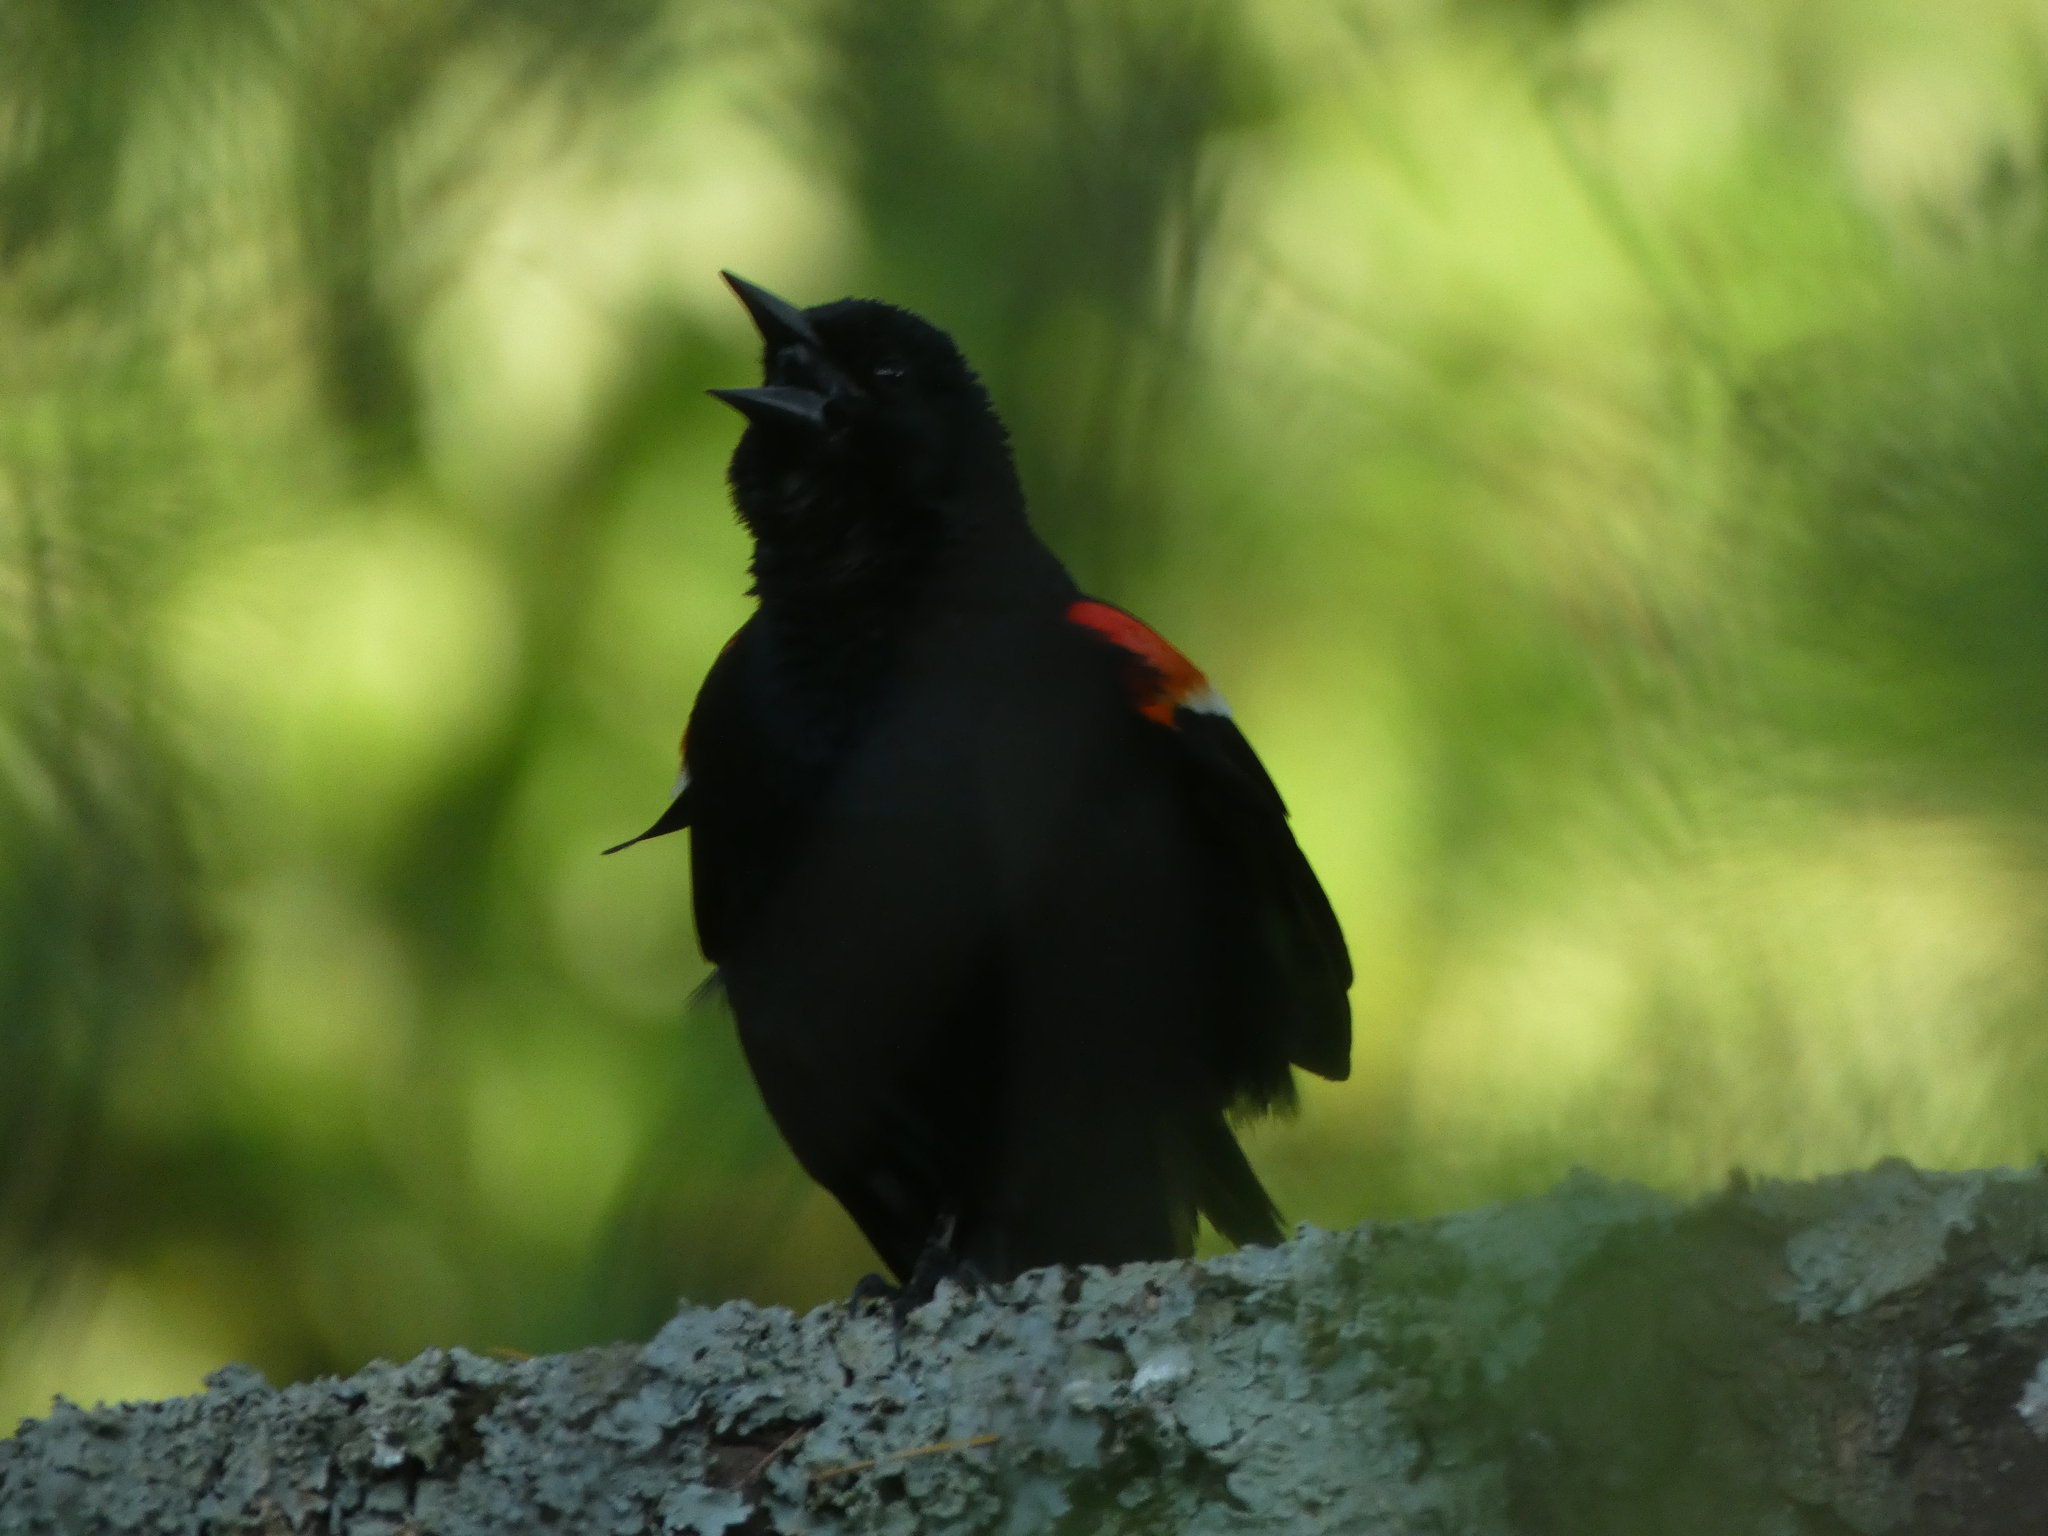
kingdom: Animalia
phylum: Chordata
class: Aves
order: Passeriformes
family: Icteridae
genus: Agelaius
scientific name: Agelaius phoeniceus
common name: Red-winged blackbird
